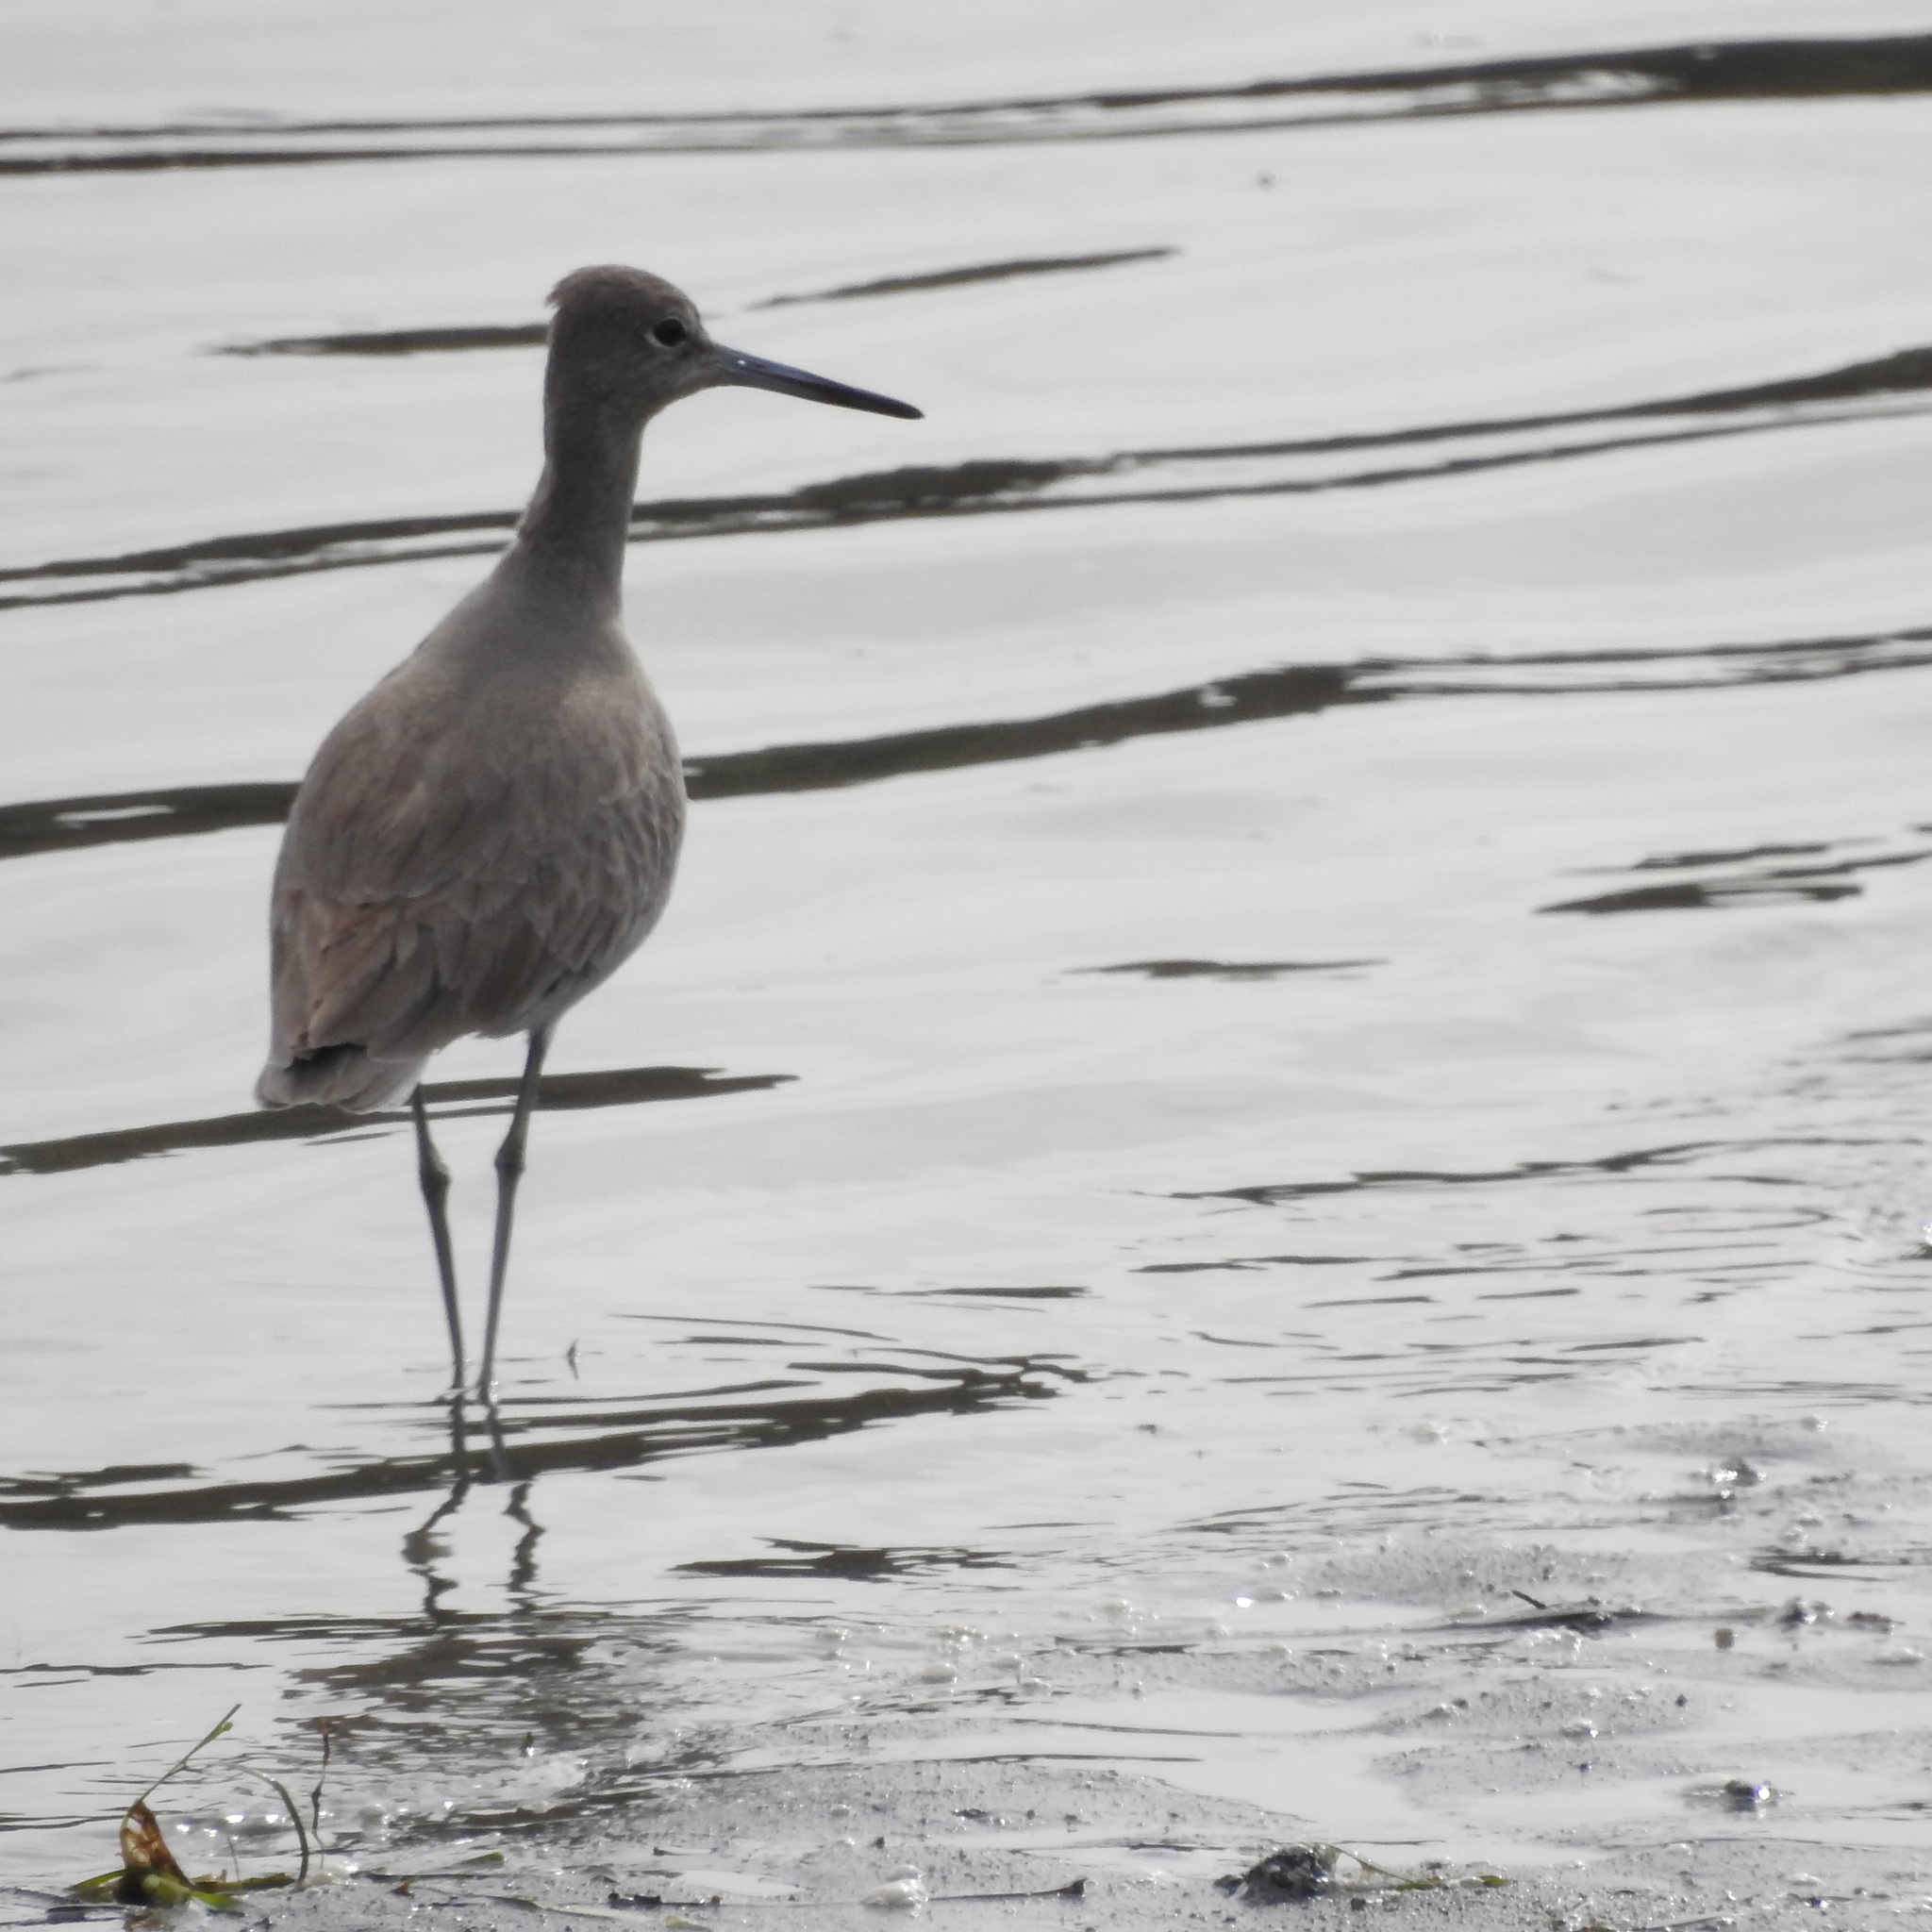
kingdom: Animalia
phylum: Chordata
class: Aves
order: Charadriiformes
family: Scolopacidae
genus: Tringa
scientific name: Tringa semipalmata
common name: Willet
